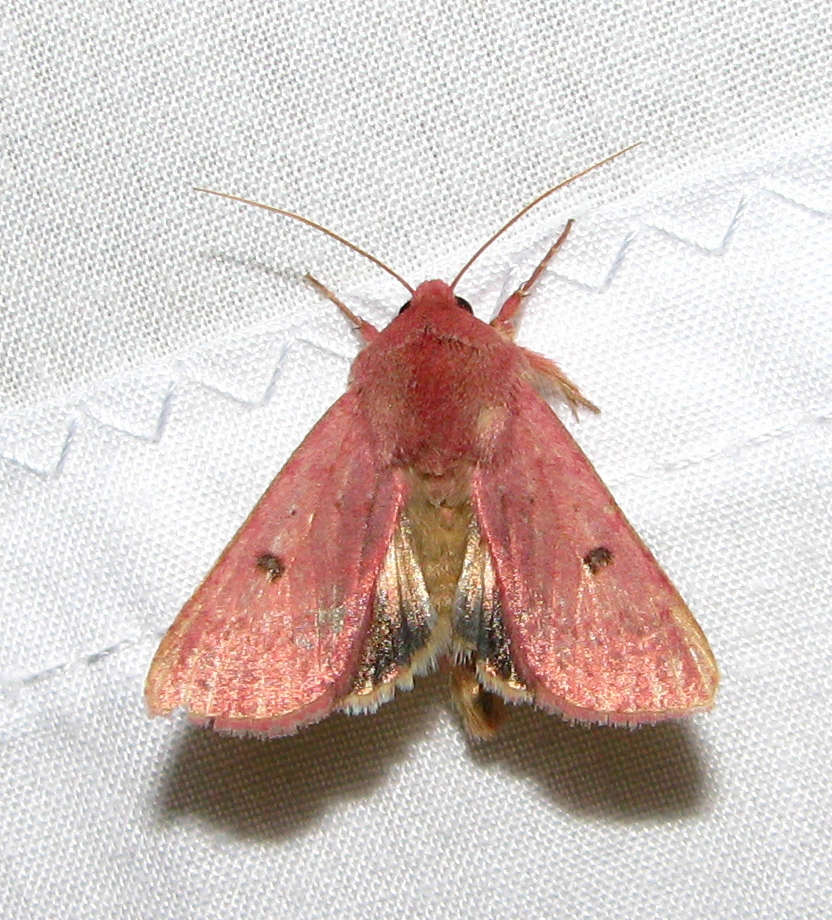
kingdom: Animalia
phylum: Arthropoda
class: Insecta
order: Lepidoptera
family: Noctuidae
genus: Australothis
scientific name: Australothis rubrescens
